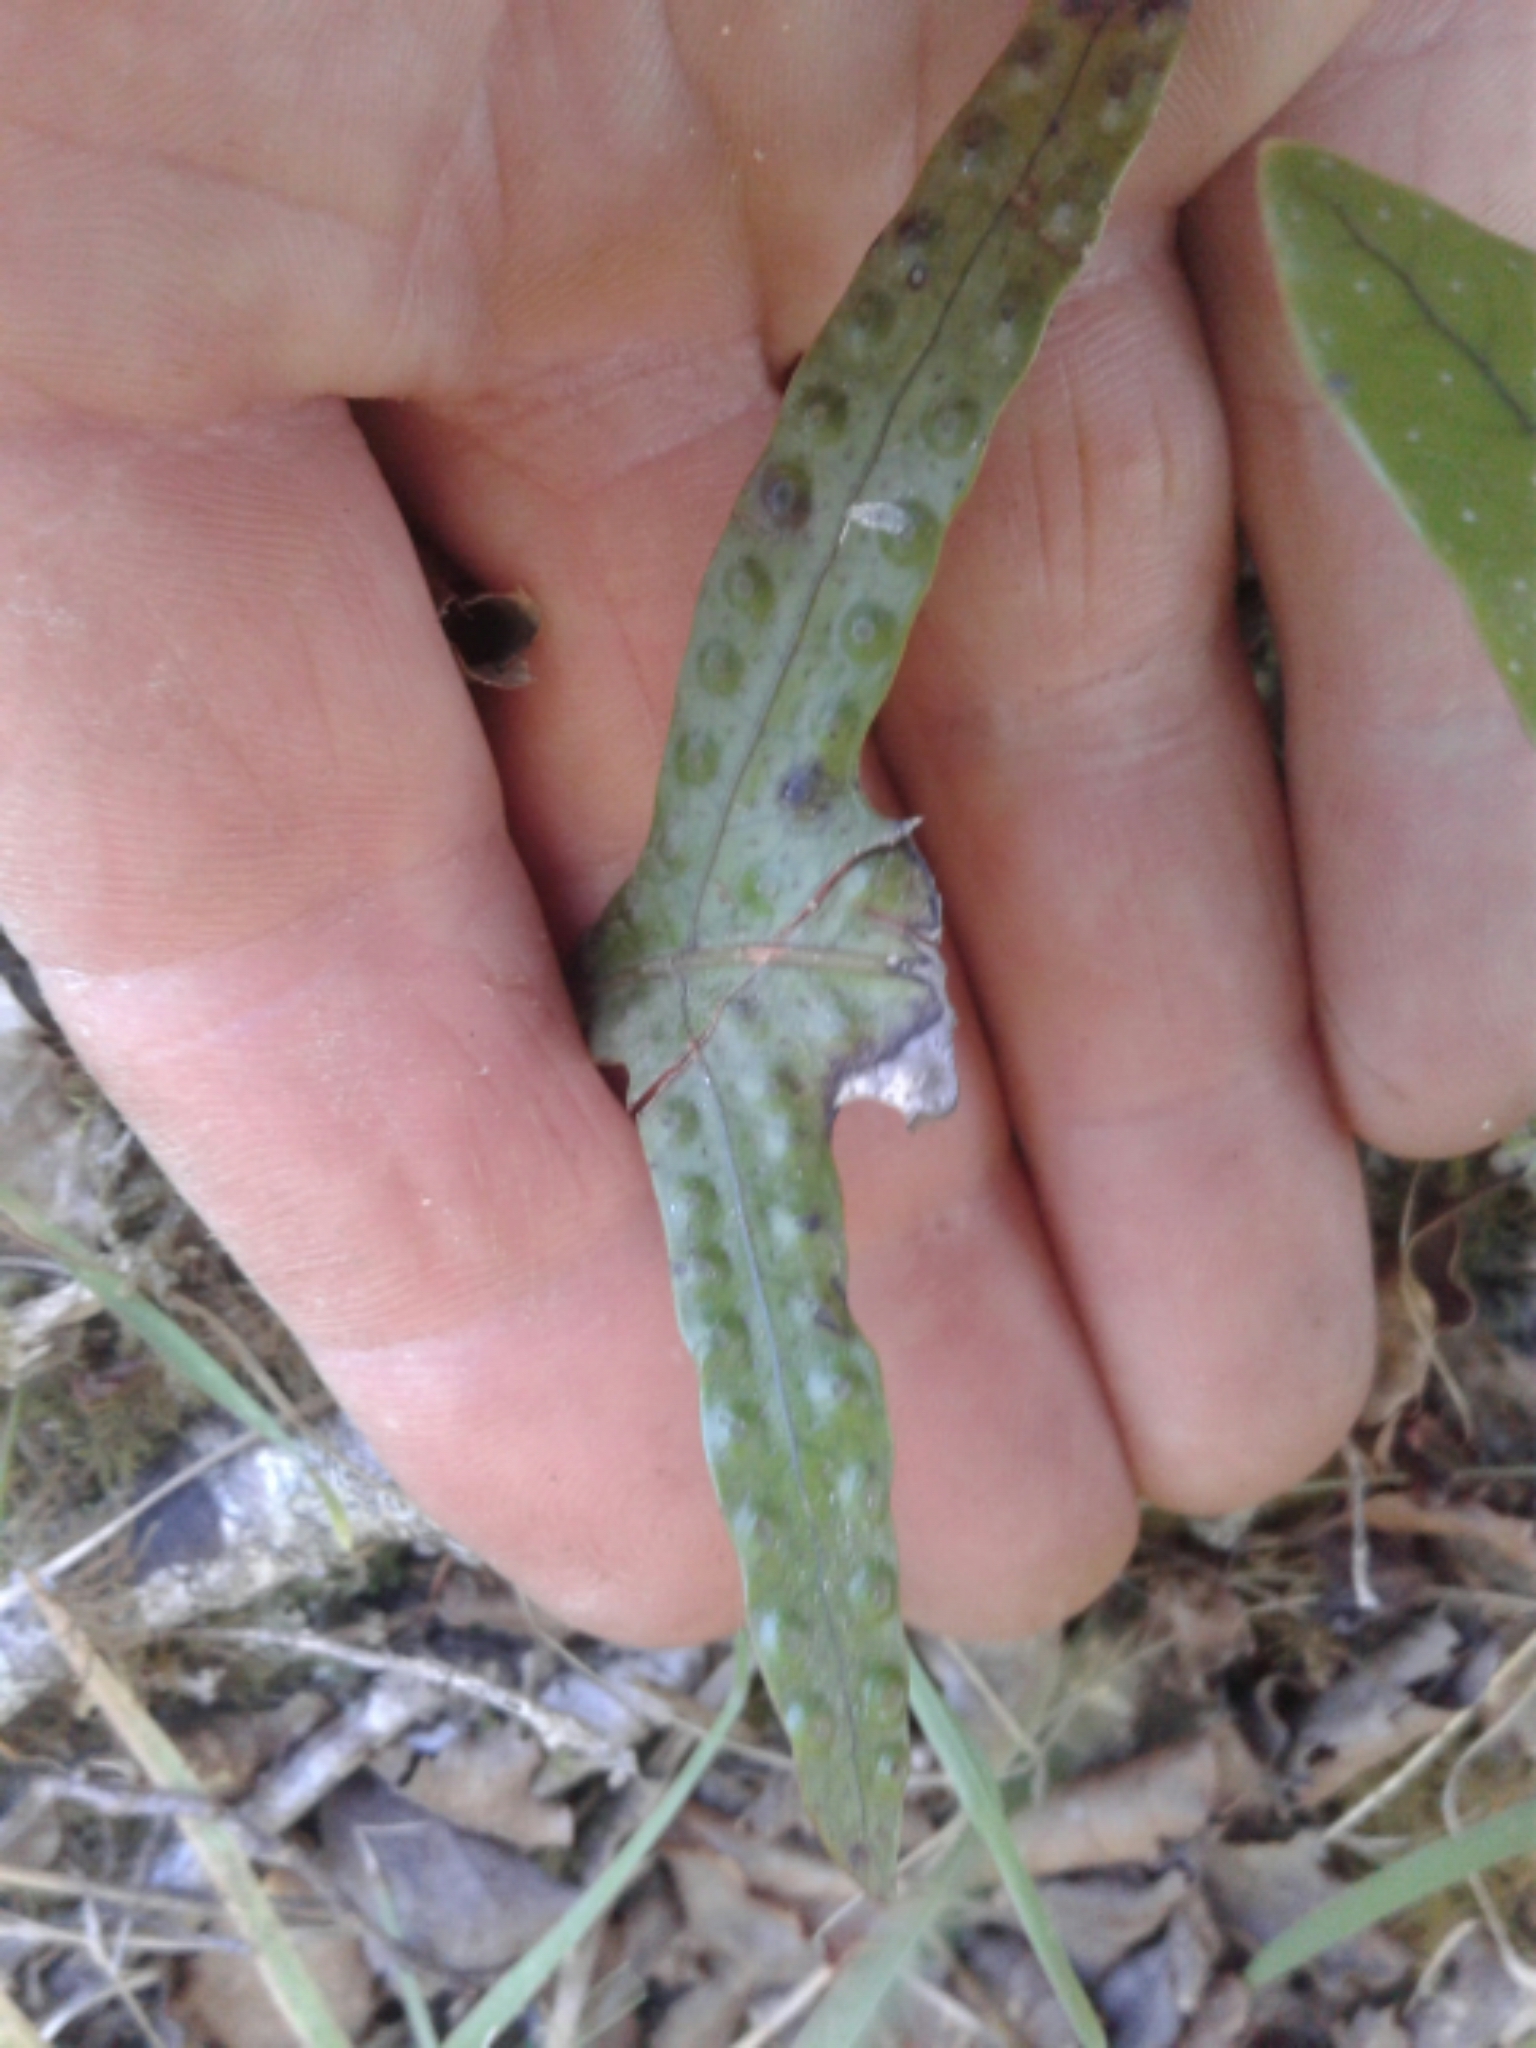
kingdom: Plantae
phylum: Tracheophyta
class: Polypodiopsida
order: Polypodiales
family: Polypodiaceae
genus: Lecanopteris
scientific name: Lecanopteris pustulata
